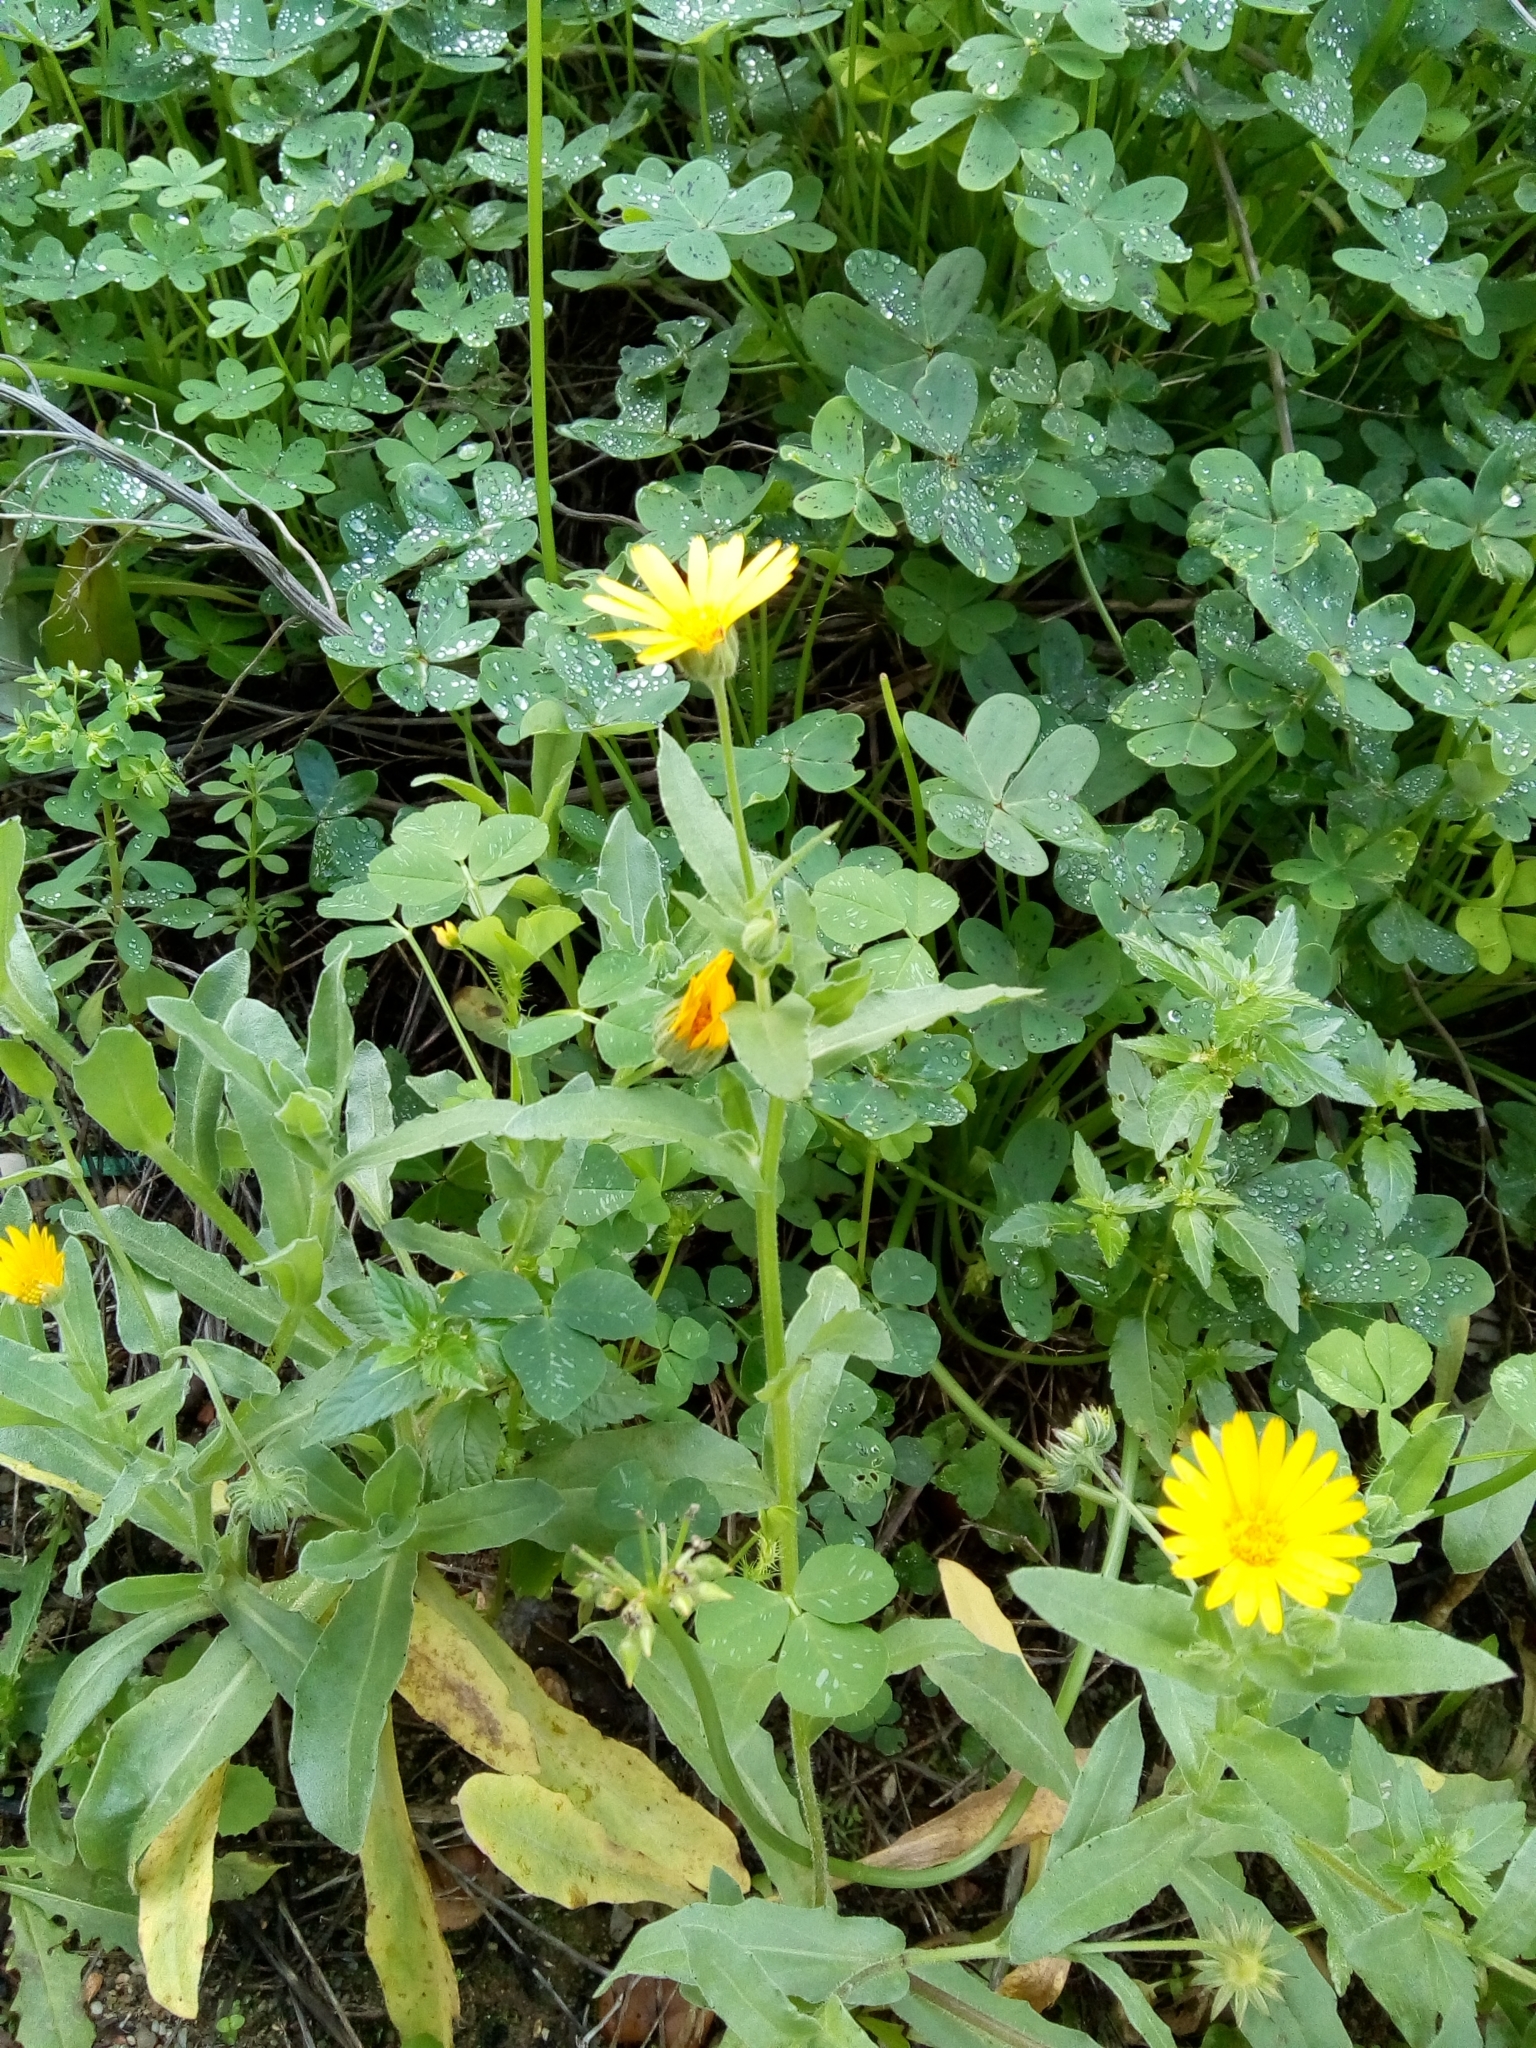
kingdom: Plantae
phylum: Tracheophyta
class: Magnoliopsida
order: Asterales
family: Asteraceae
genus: Calendula
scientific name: Calendula arvensis
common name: Field marigold
